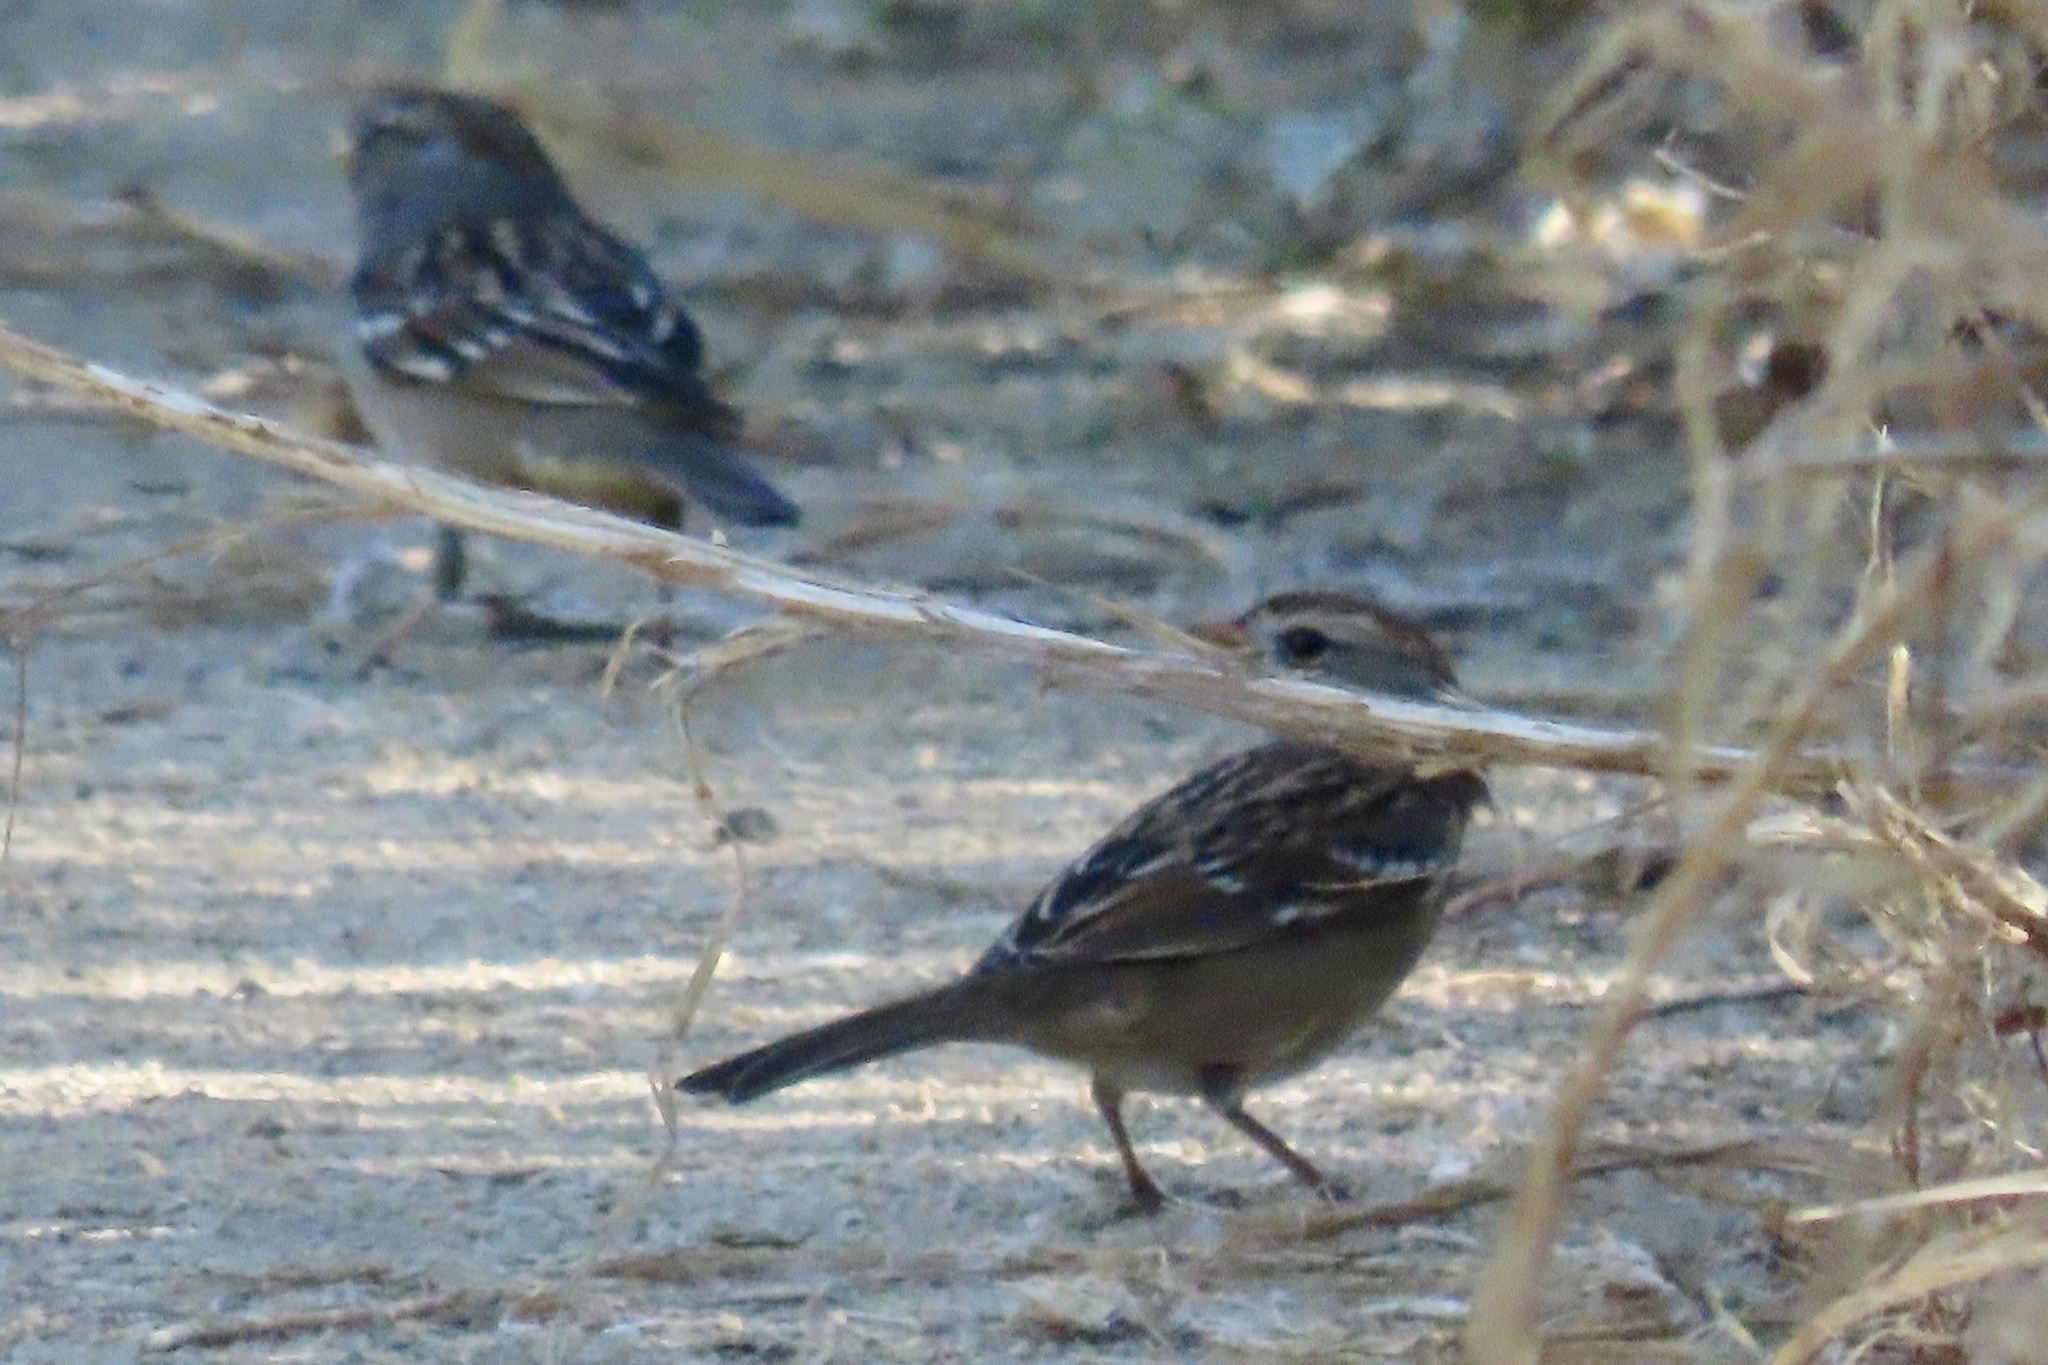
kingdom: Animalia
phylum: Chordata
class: Aves
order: Passeriformes
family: Passerellidae
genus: Zonotrichia
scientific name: Zonotrichia leucophrys
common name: White-crowned sparrow
